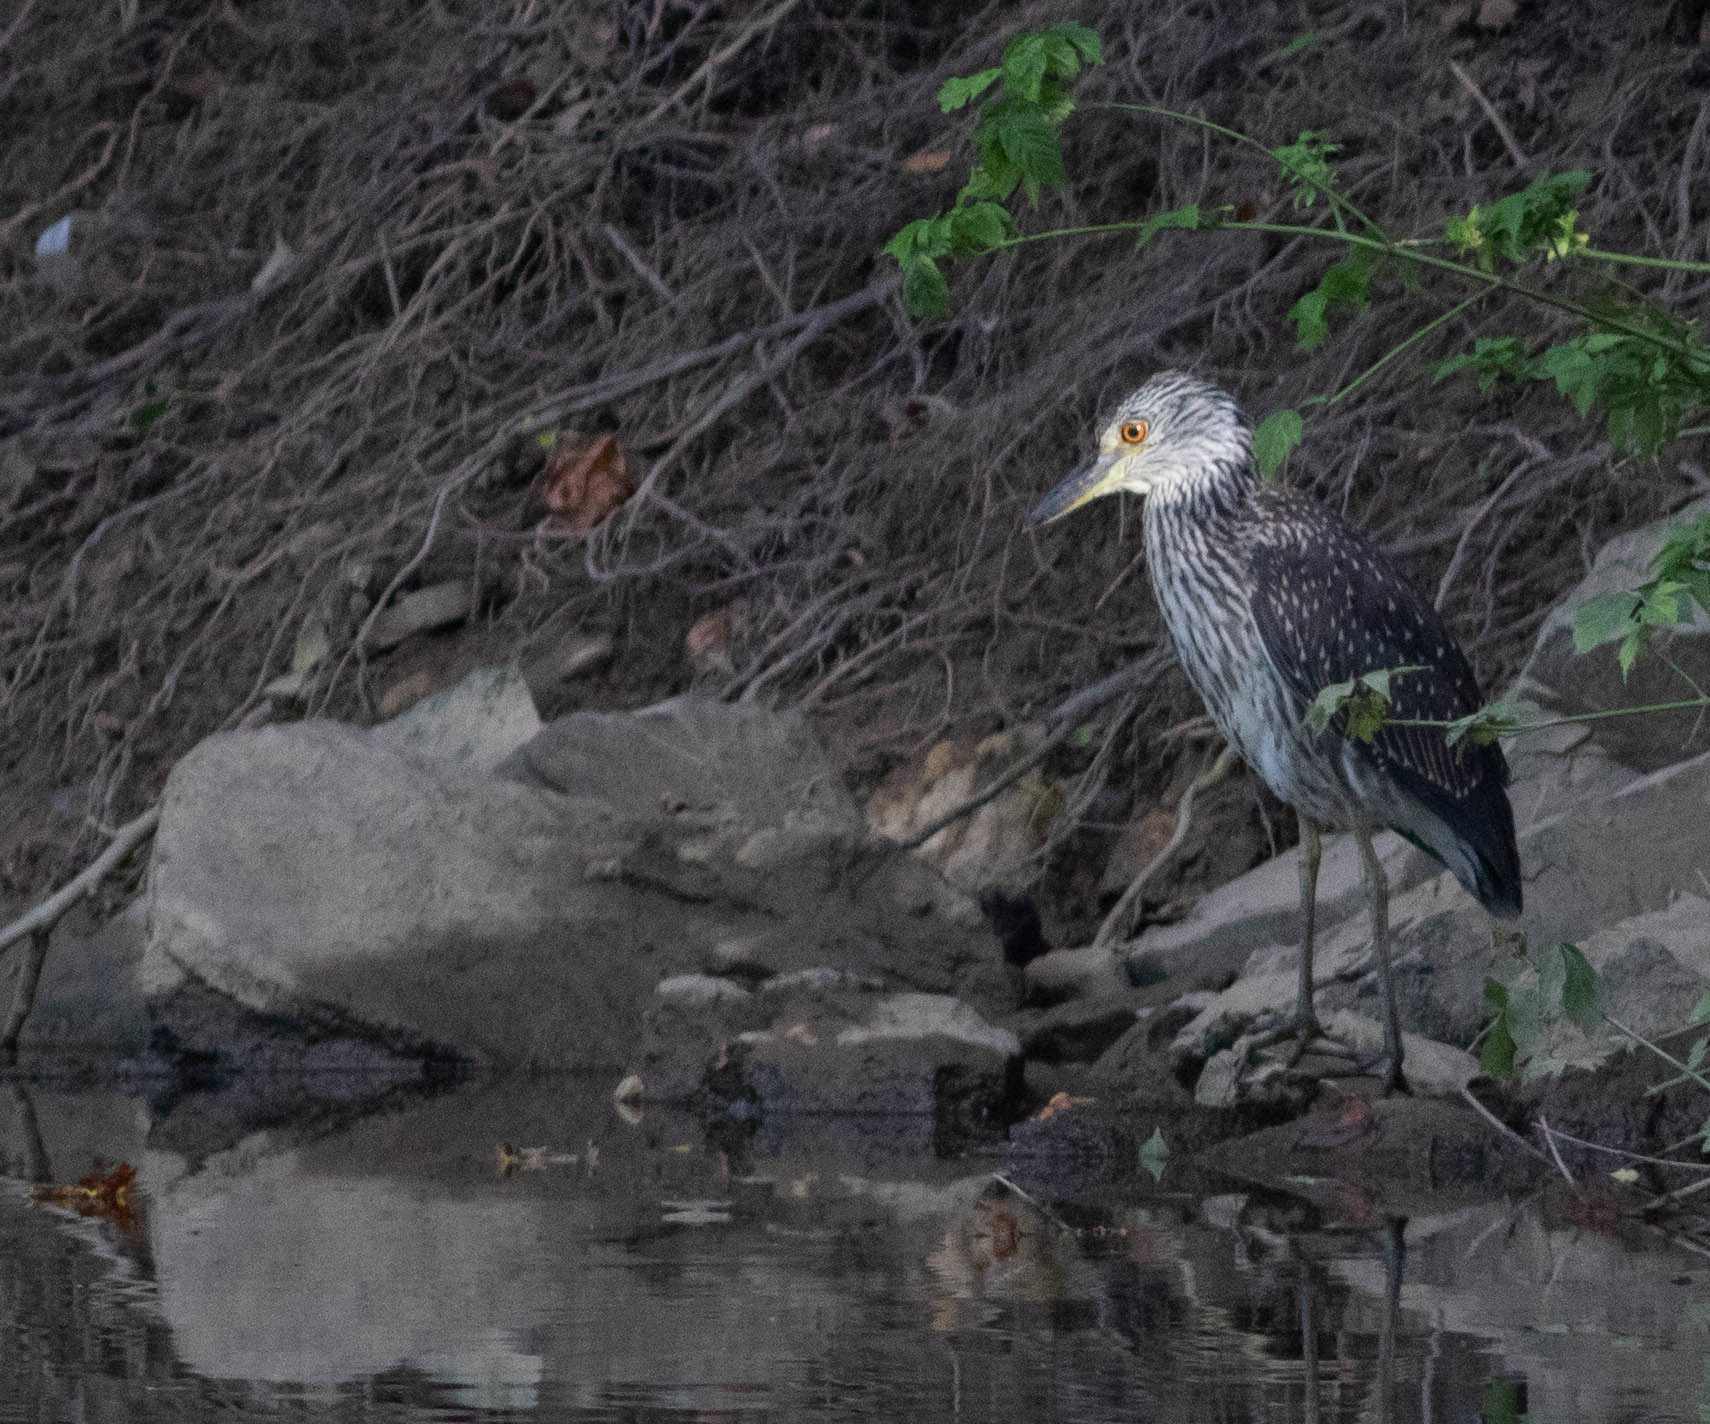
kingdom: Animalia
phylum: Chordata
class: Aves
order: Pelecaniformes
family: Ardeidae
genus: Nyctanassa
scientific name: Nyctanassa violacea
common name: Yellow-crowned night heron
